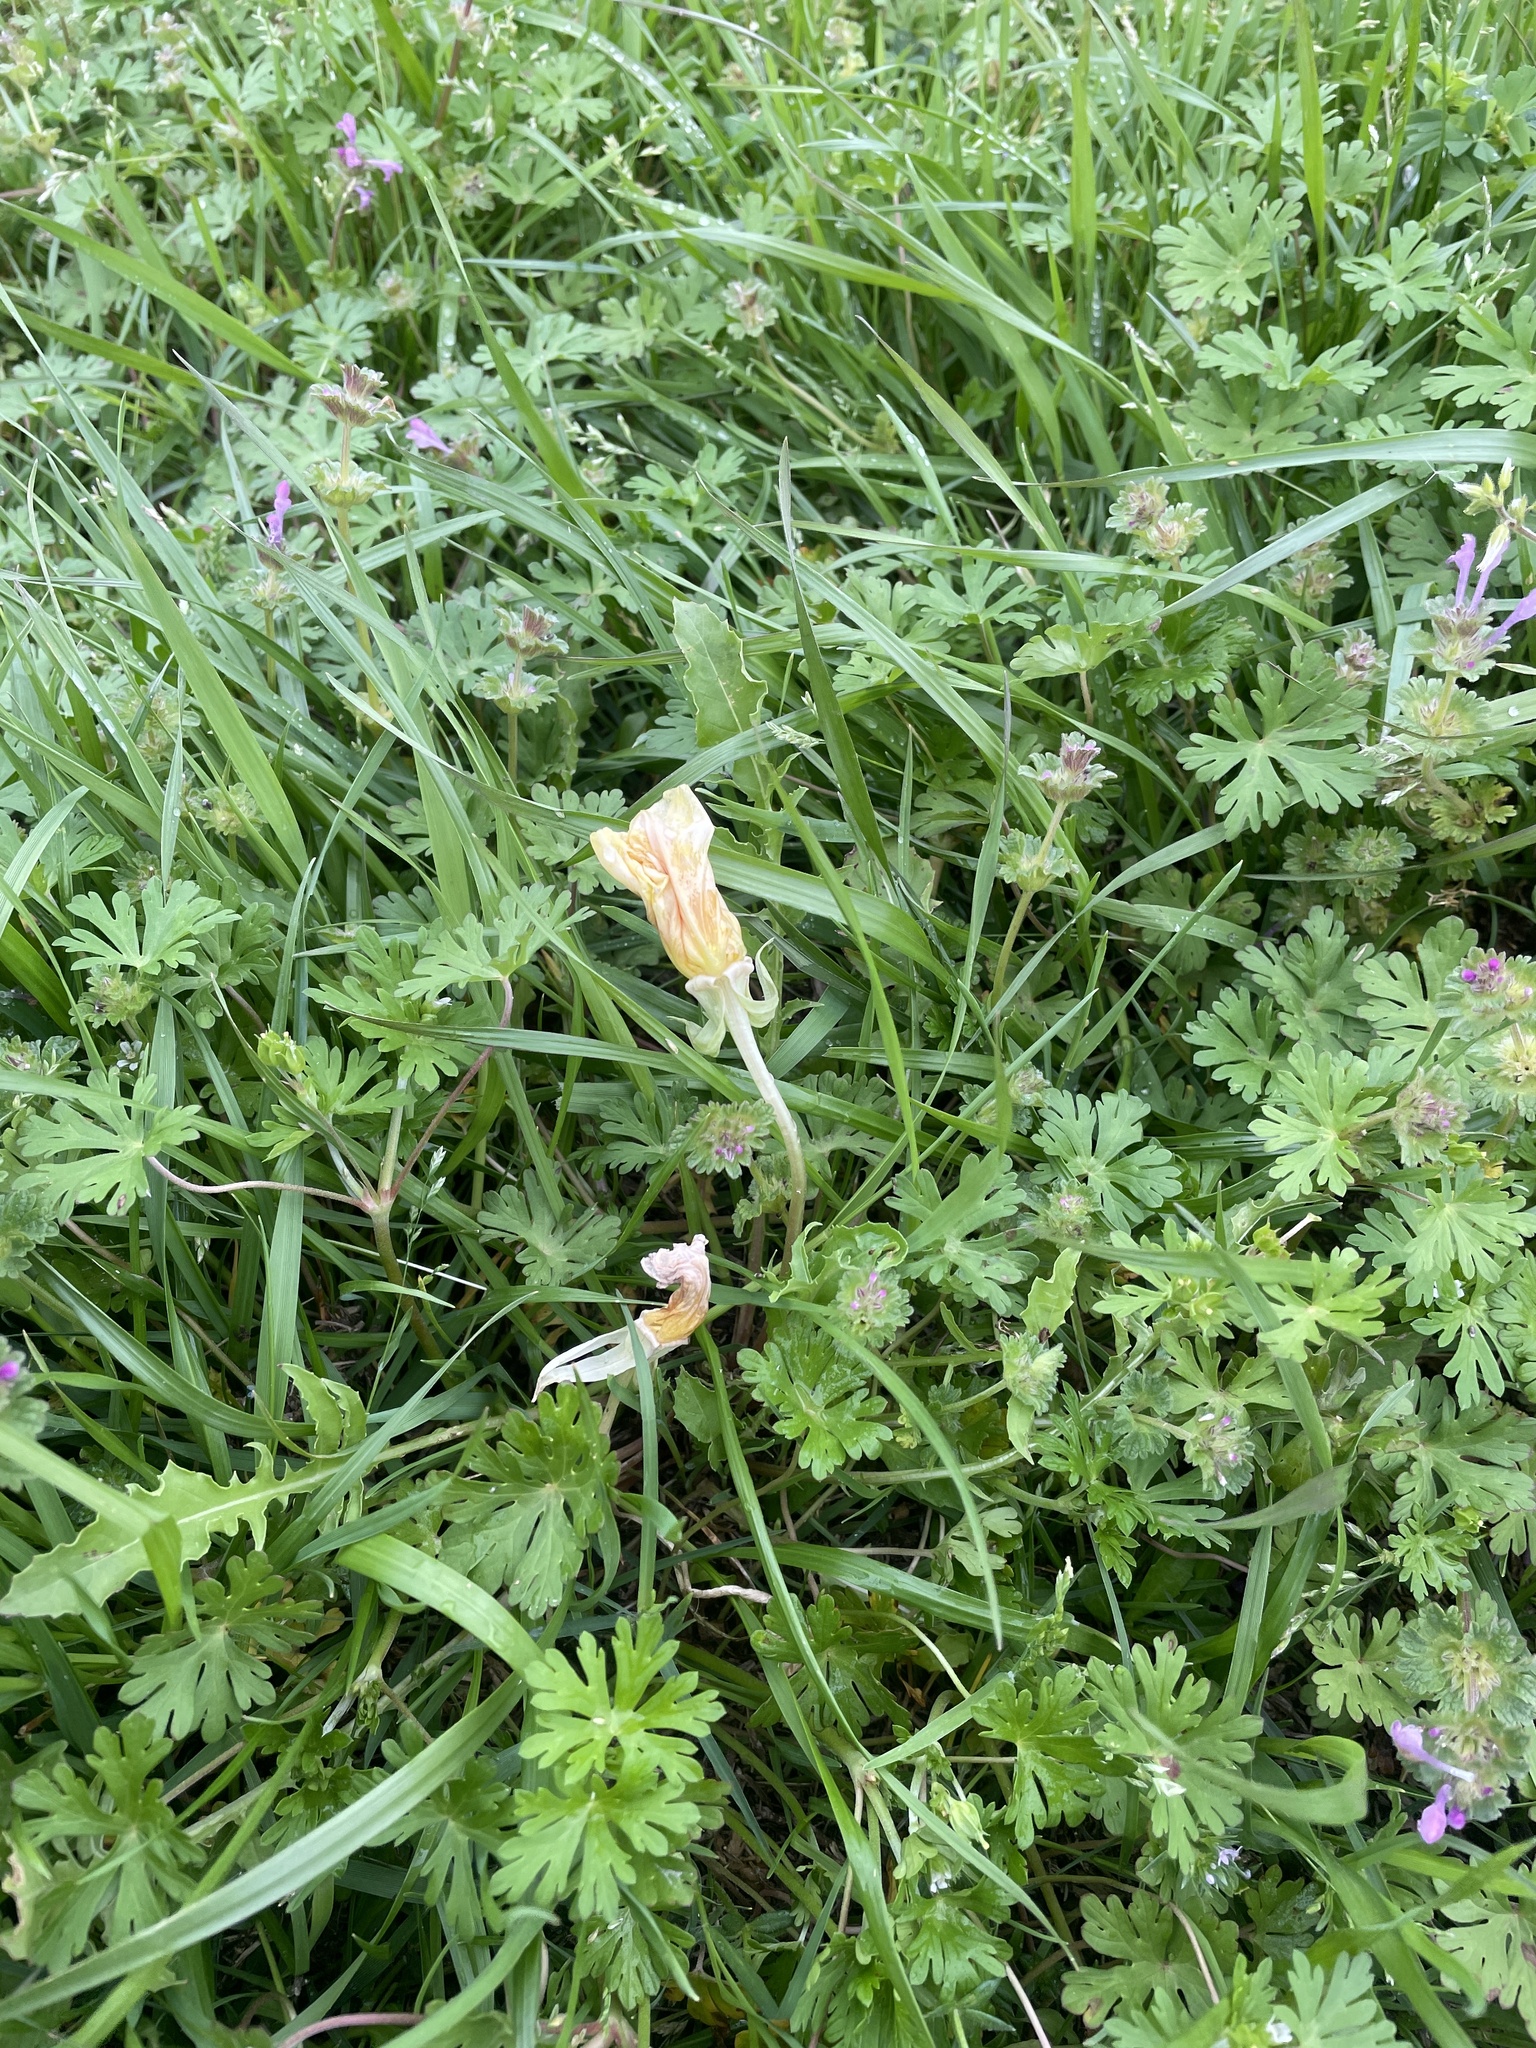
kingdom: Plantae
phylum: Tracheophyta
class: Magnoliopsida
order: Myrtales
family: Onagraceae
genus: Oenothera
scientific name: Oenothera triloba
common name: Sessile evening-primrose
